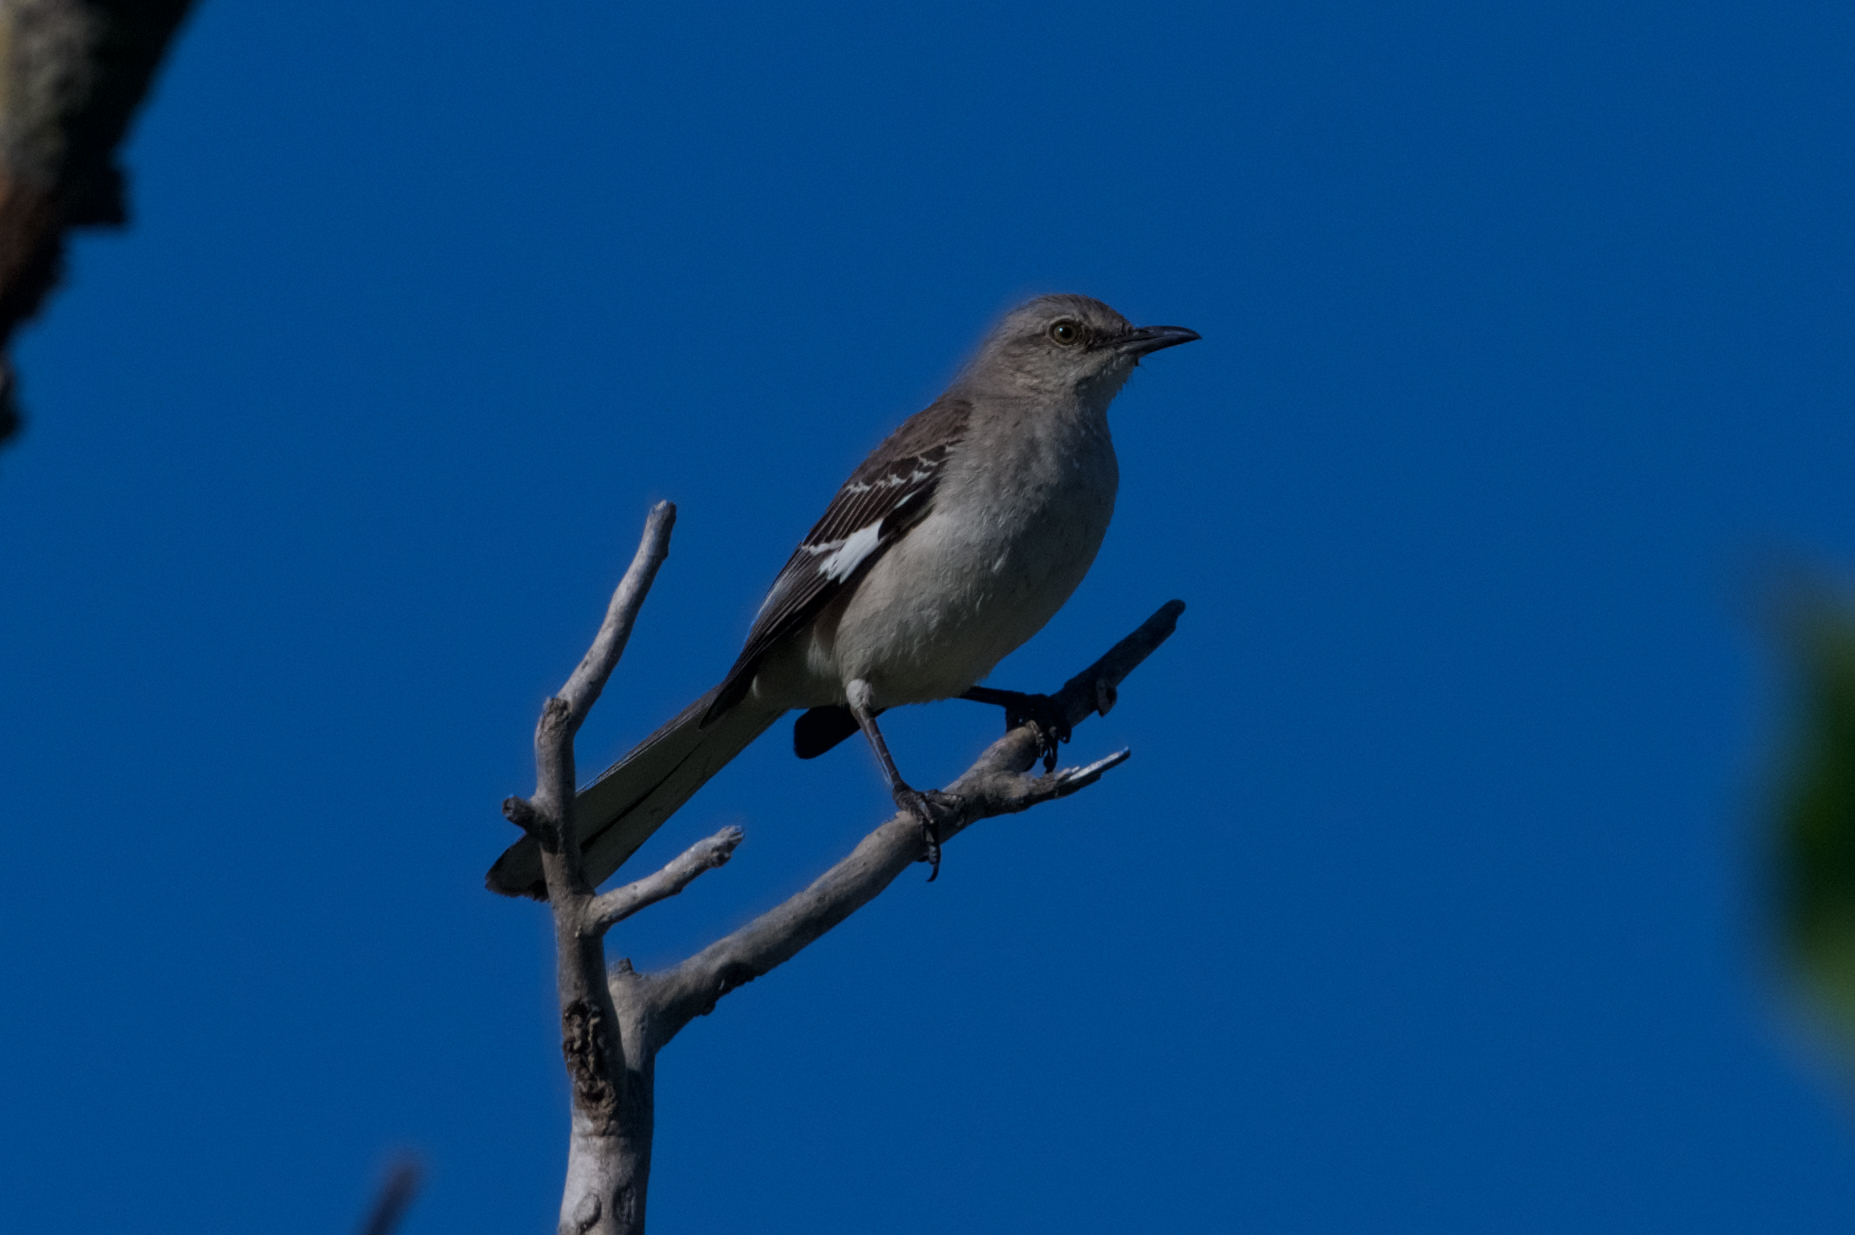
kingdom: Animalia
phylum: Chordata
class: Aves
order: Passeriformes
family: Mimidae
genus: Mimus
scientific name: Mimus polyglottos
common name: Northern mockingbird
